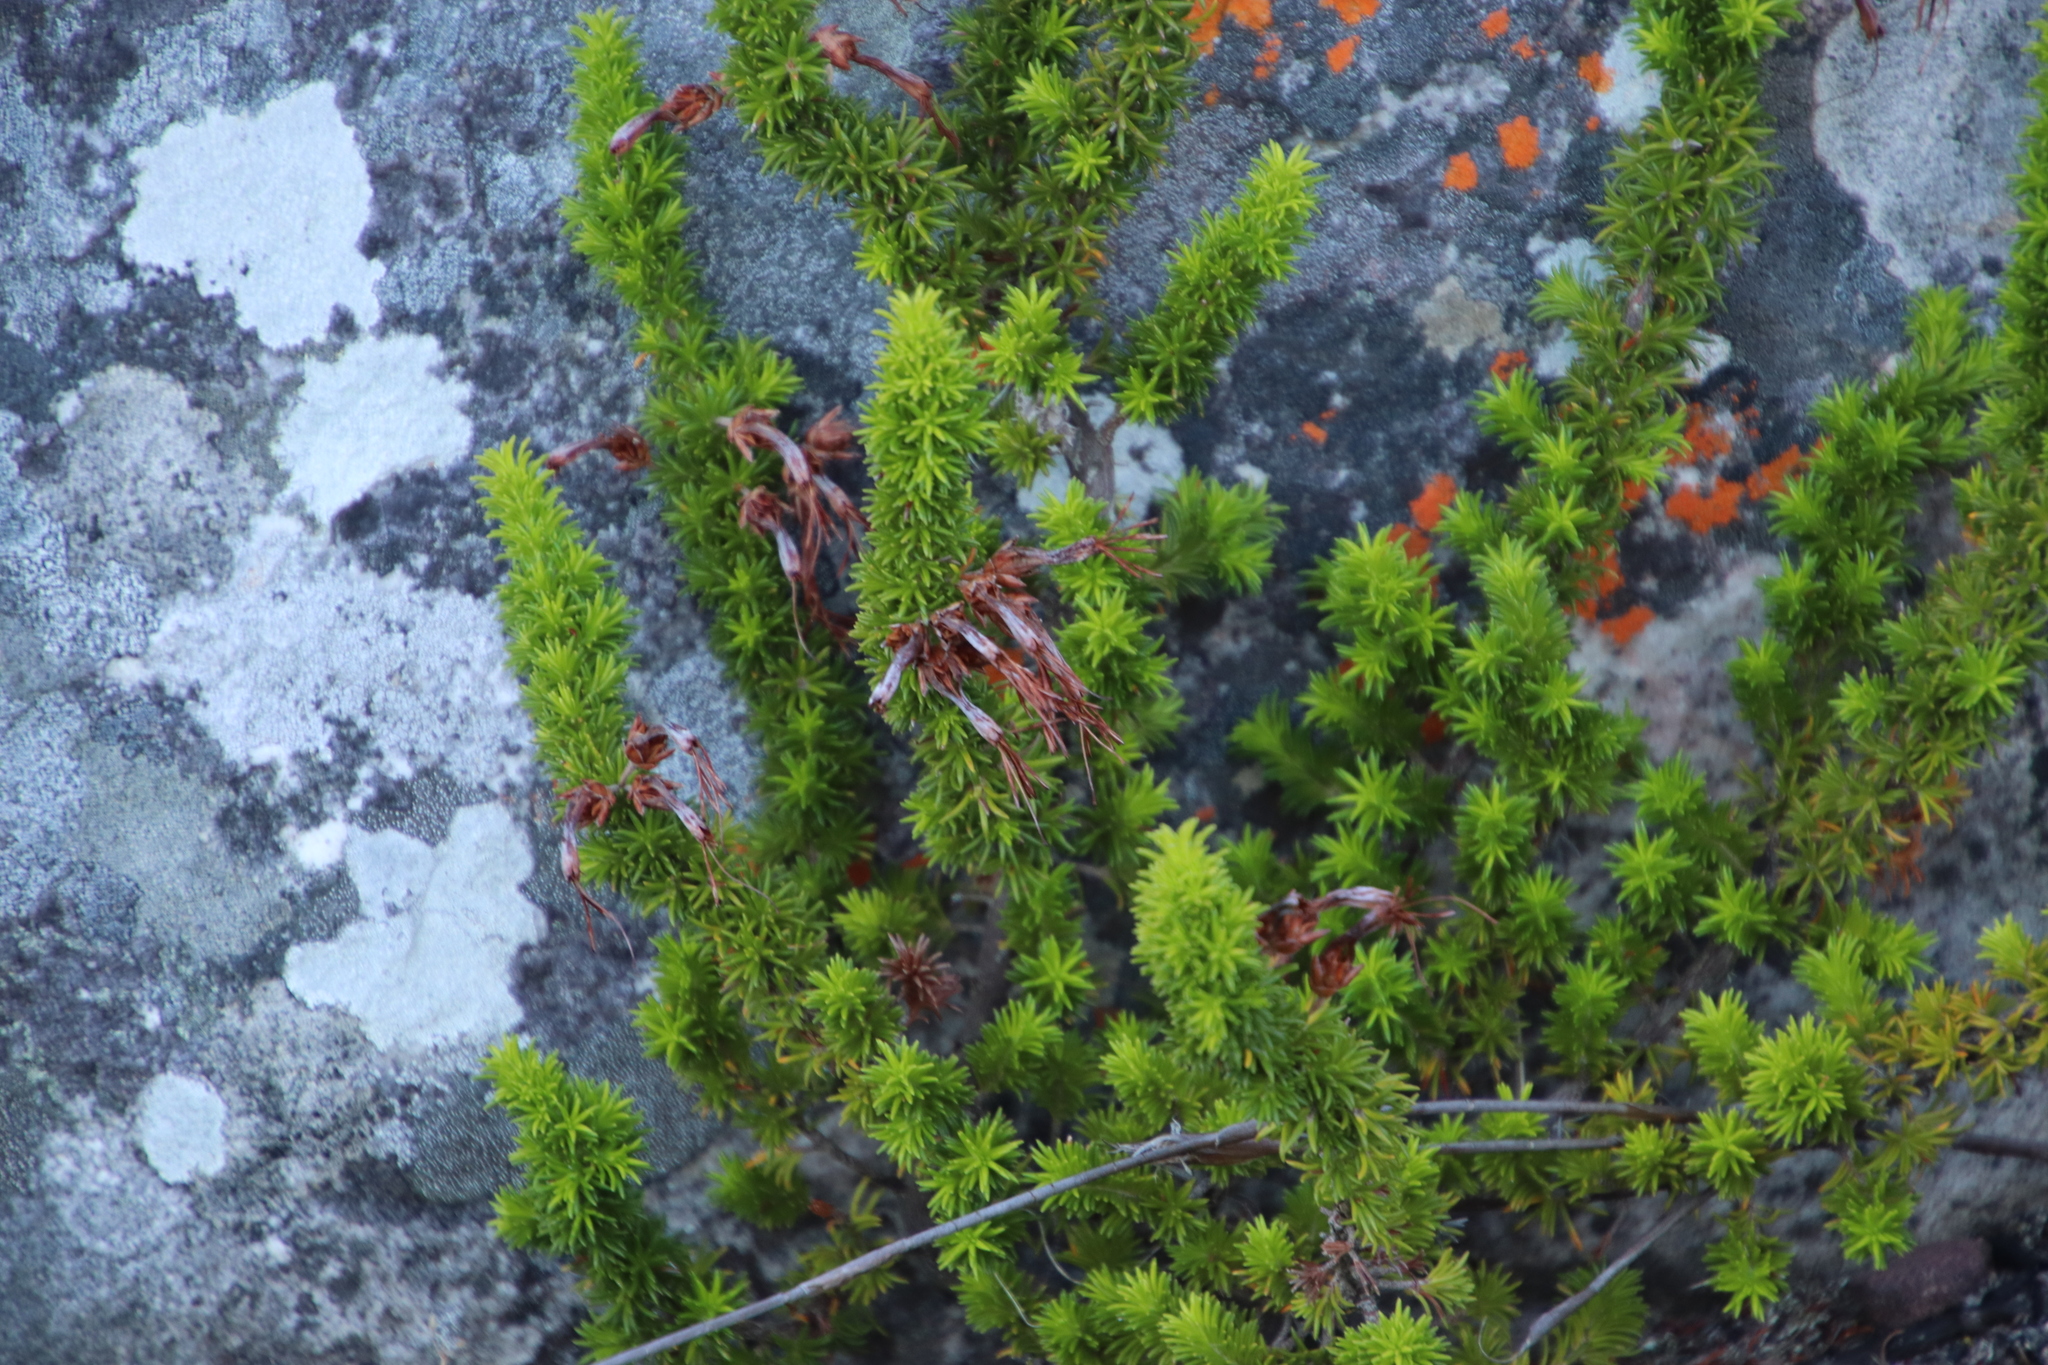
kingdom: Plantae
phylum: Tracheophyta
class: Magnoliopsida
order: Ericales
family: Ericaceae
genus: Erica
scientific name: Erica coccinea
